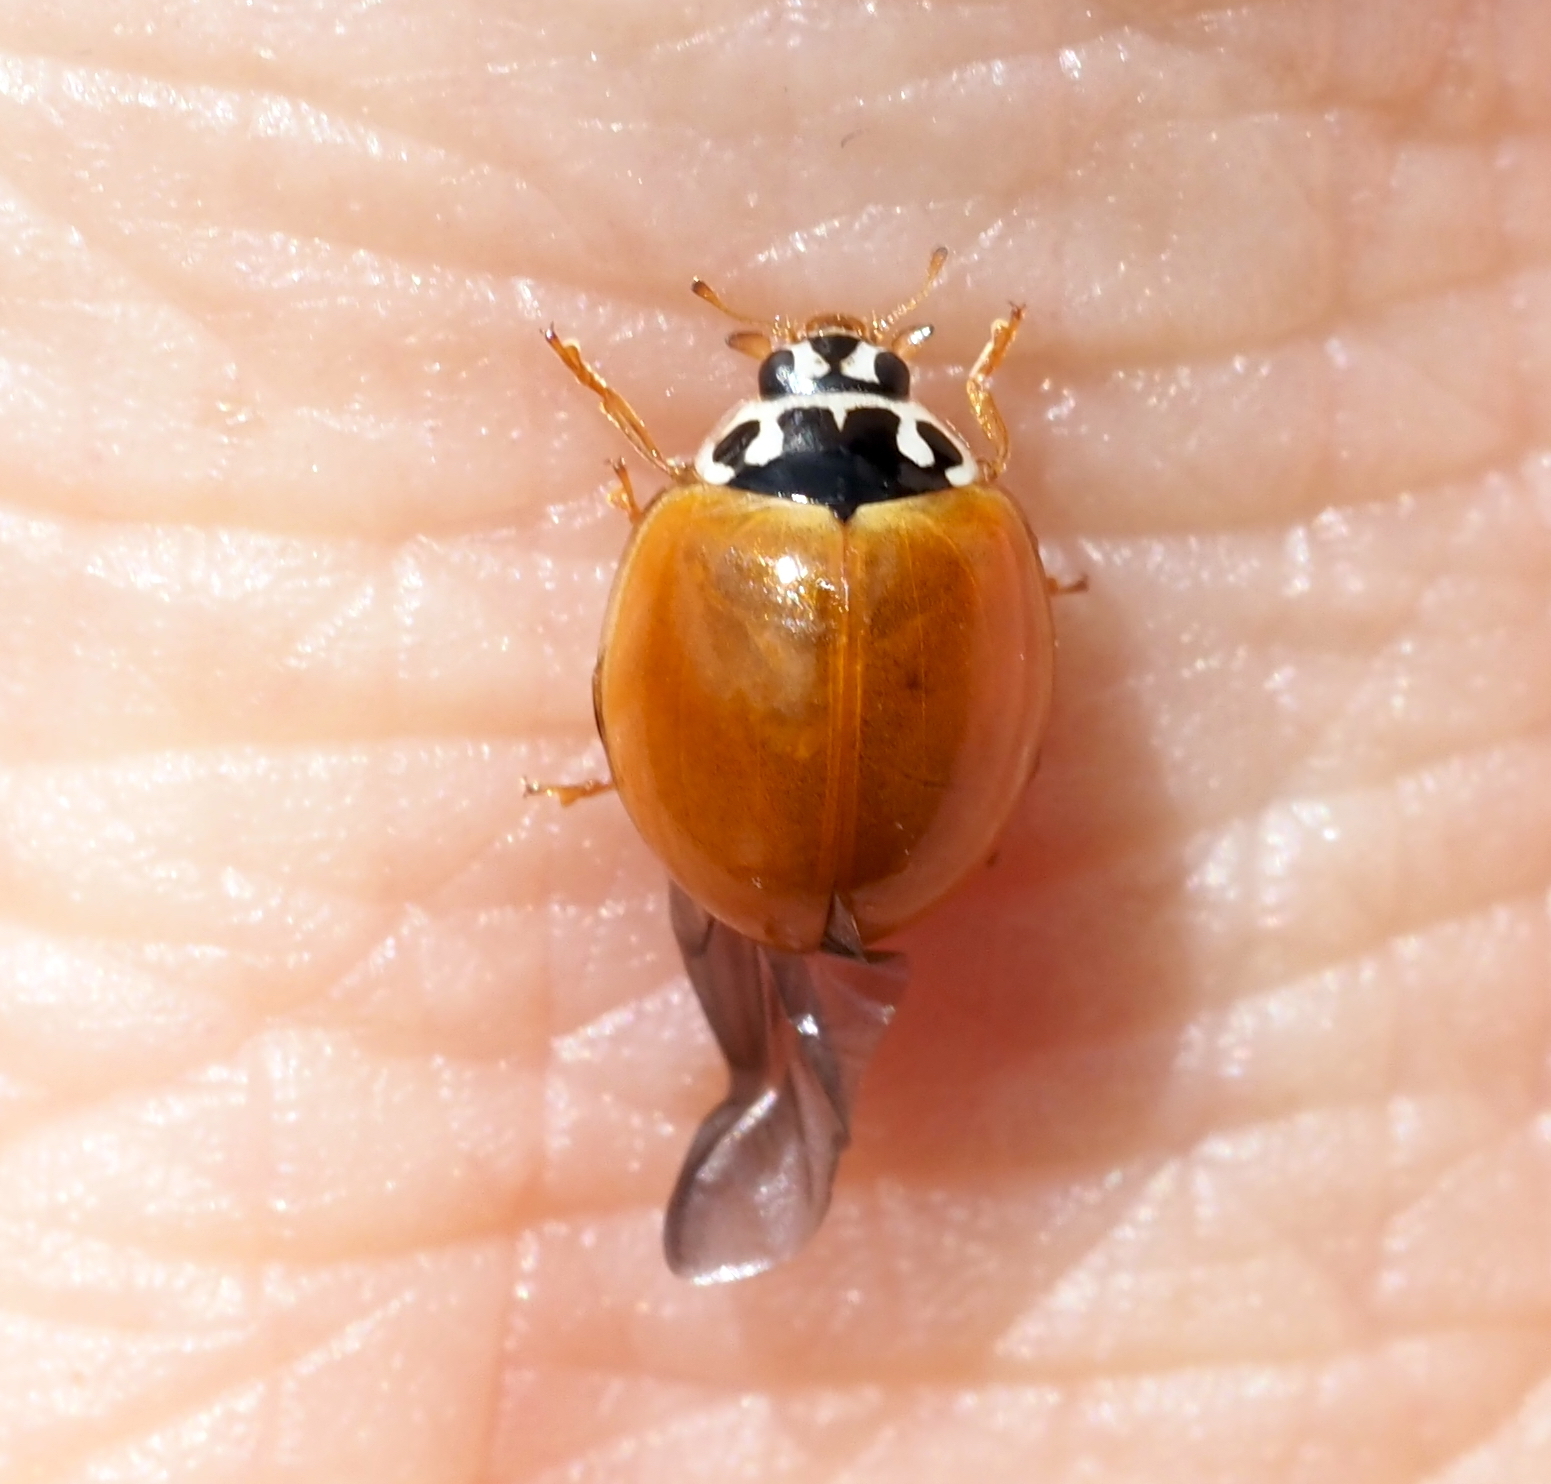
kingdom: Animalia
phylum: Arthropoda
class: Insecta
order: Coleoptera
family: Coccinellidae
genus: Cycloneda
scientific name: Cycloneda munda
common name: Polished lady beetle
